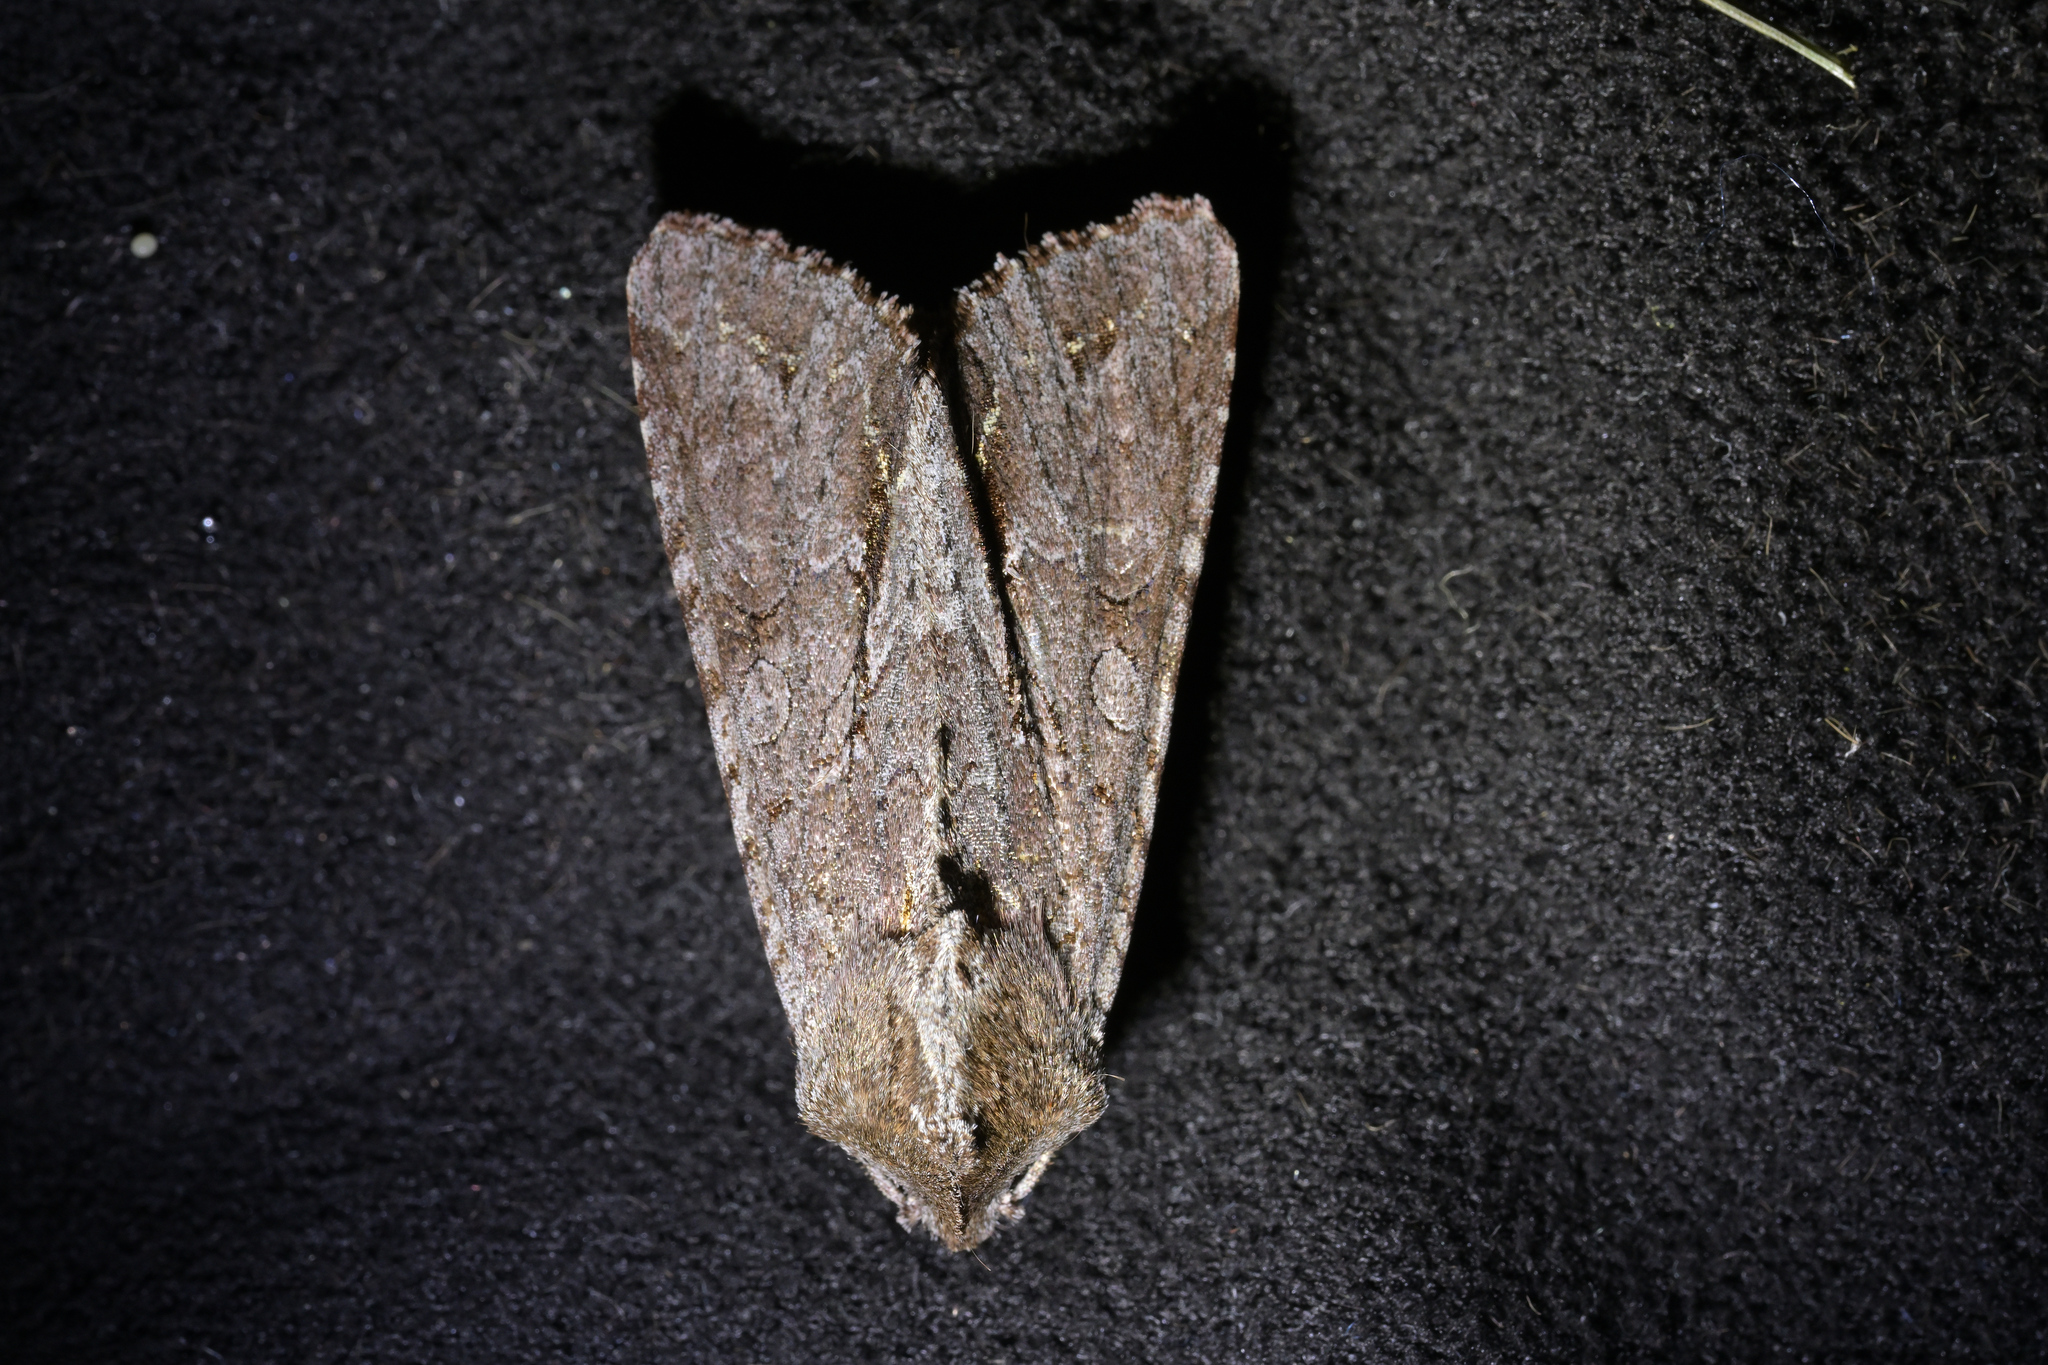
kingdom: Animalia
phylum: Arthropoda
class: Insecta
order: Lepidoptera
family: Noctuidae
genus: Ichneutica
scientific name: Ichneutica
